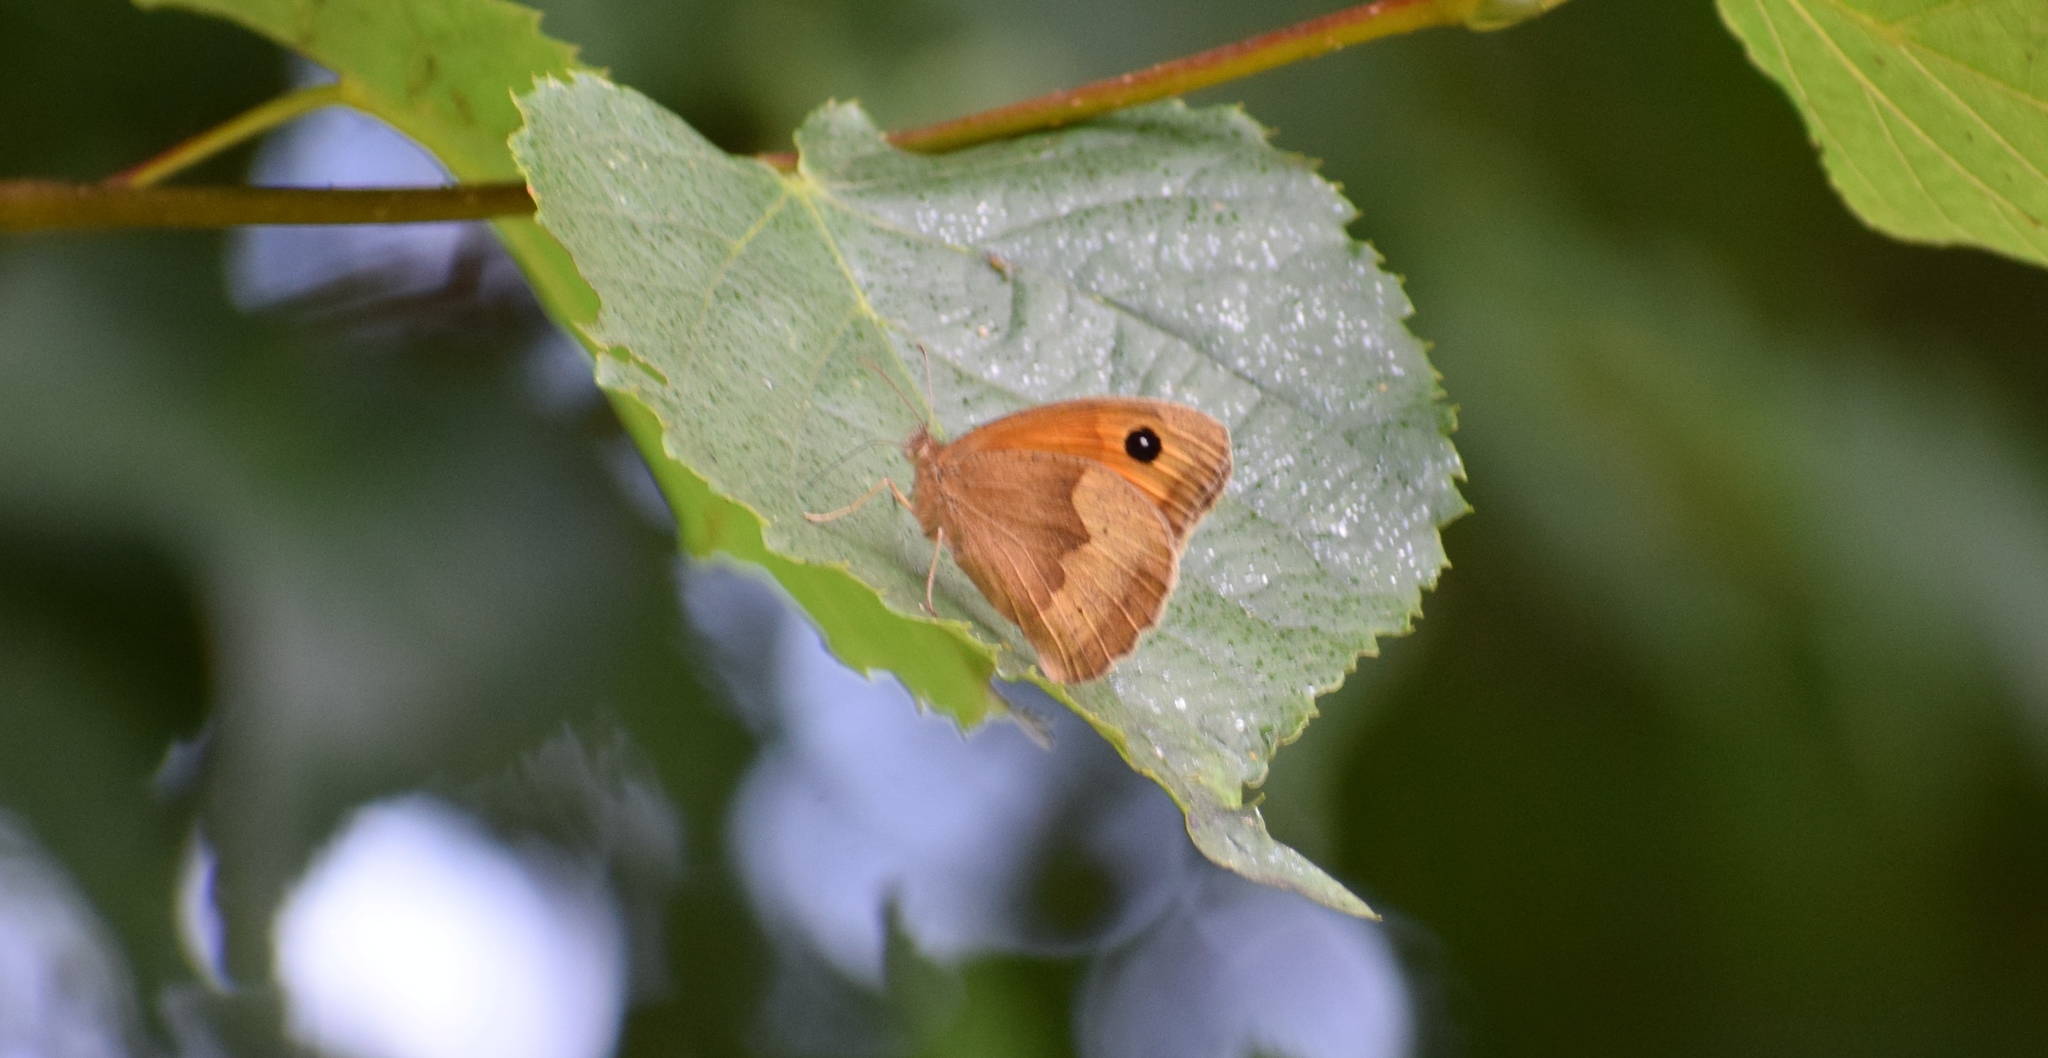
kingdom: Animalia
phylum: Arthropoda
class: Insecta
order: Lepidoptera
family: Nymphalidae
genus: Maniola
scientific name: Maniola jurtina
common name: Meadow brown
